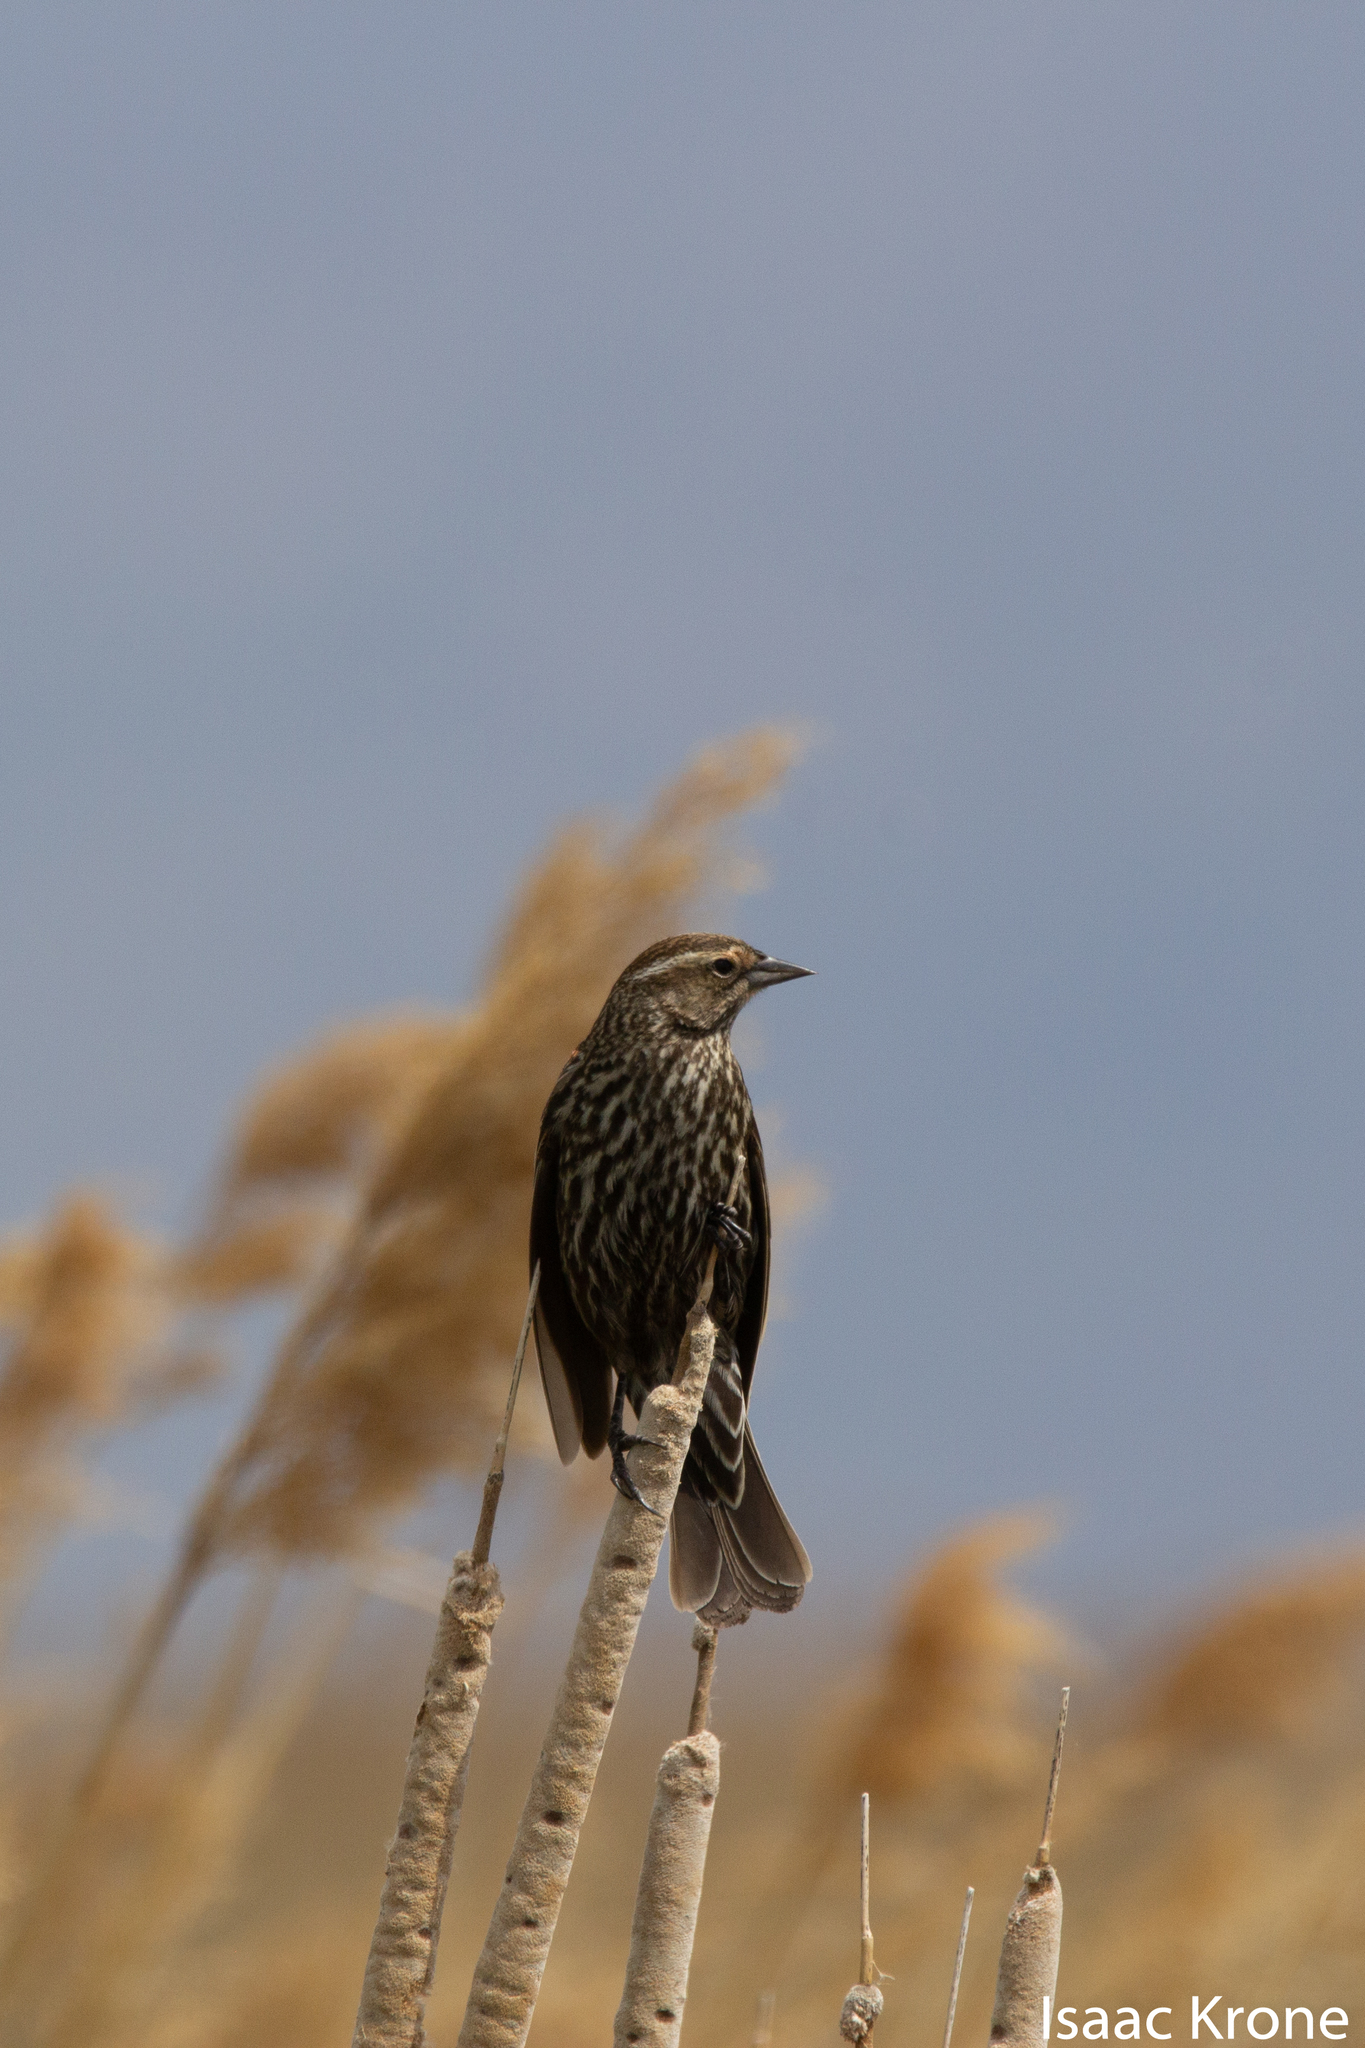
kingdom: Animalia
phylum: Chordata
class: Aves
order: Passeriformes
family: Icteridae
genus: Agelaius
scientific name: Agelaius phoeniceus
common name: Red-winged blackbird
